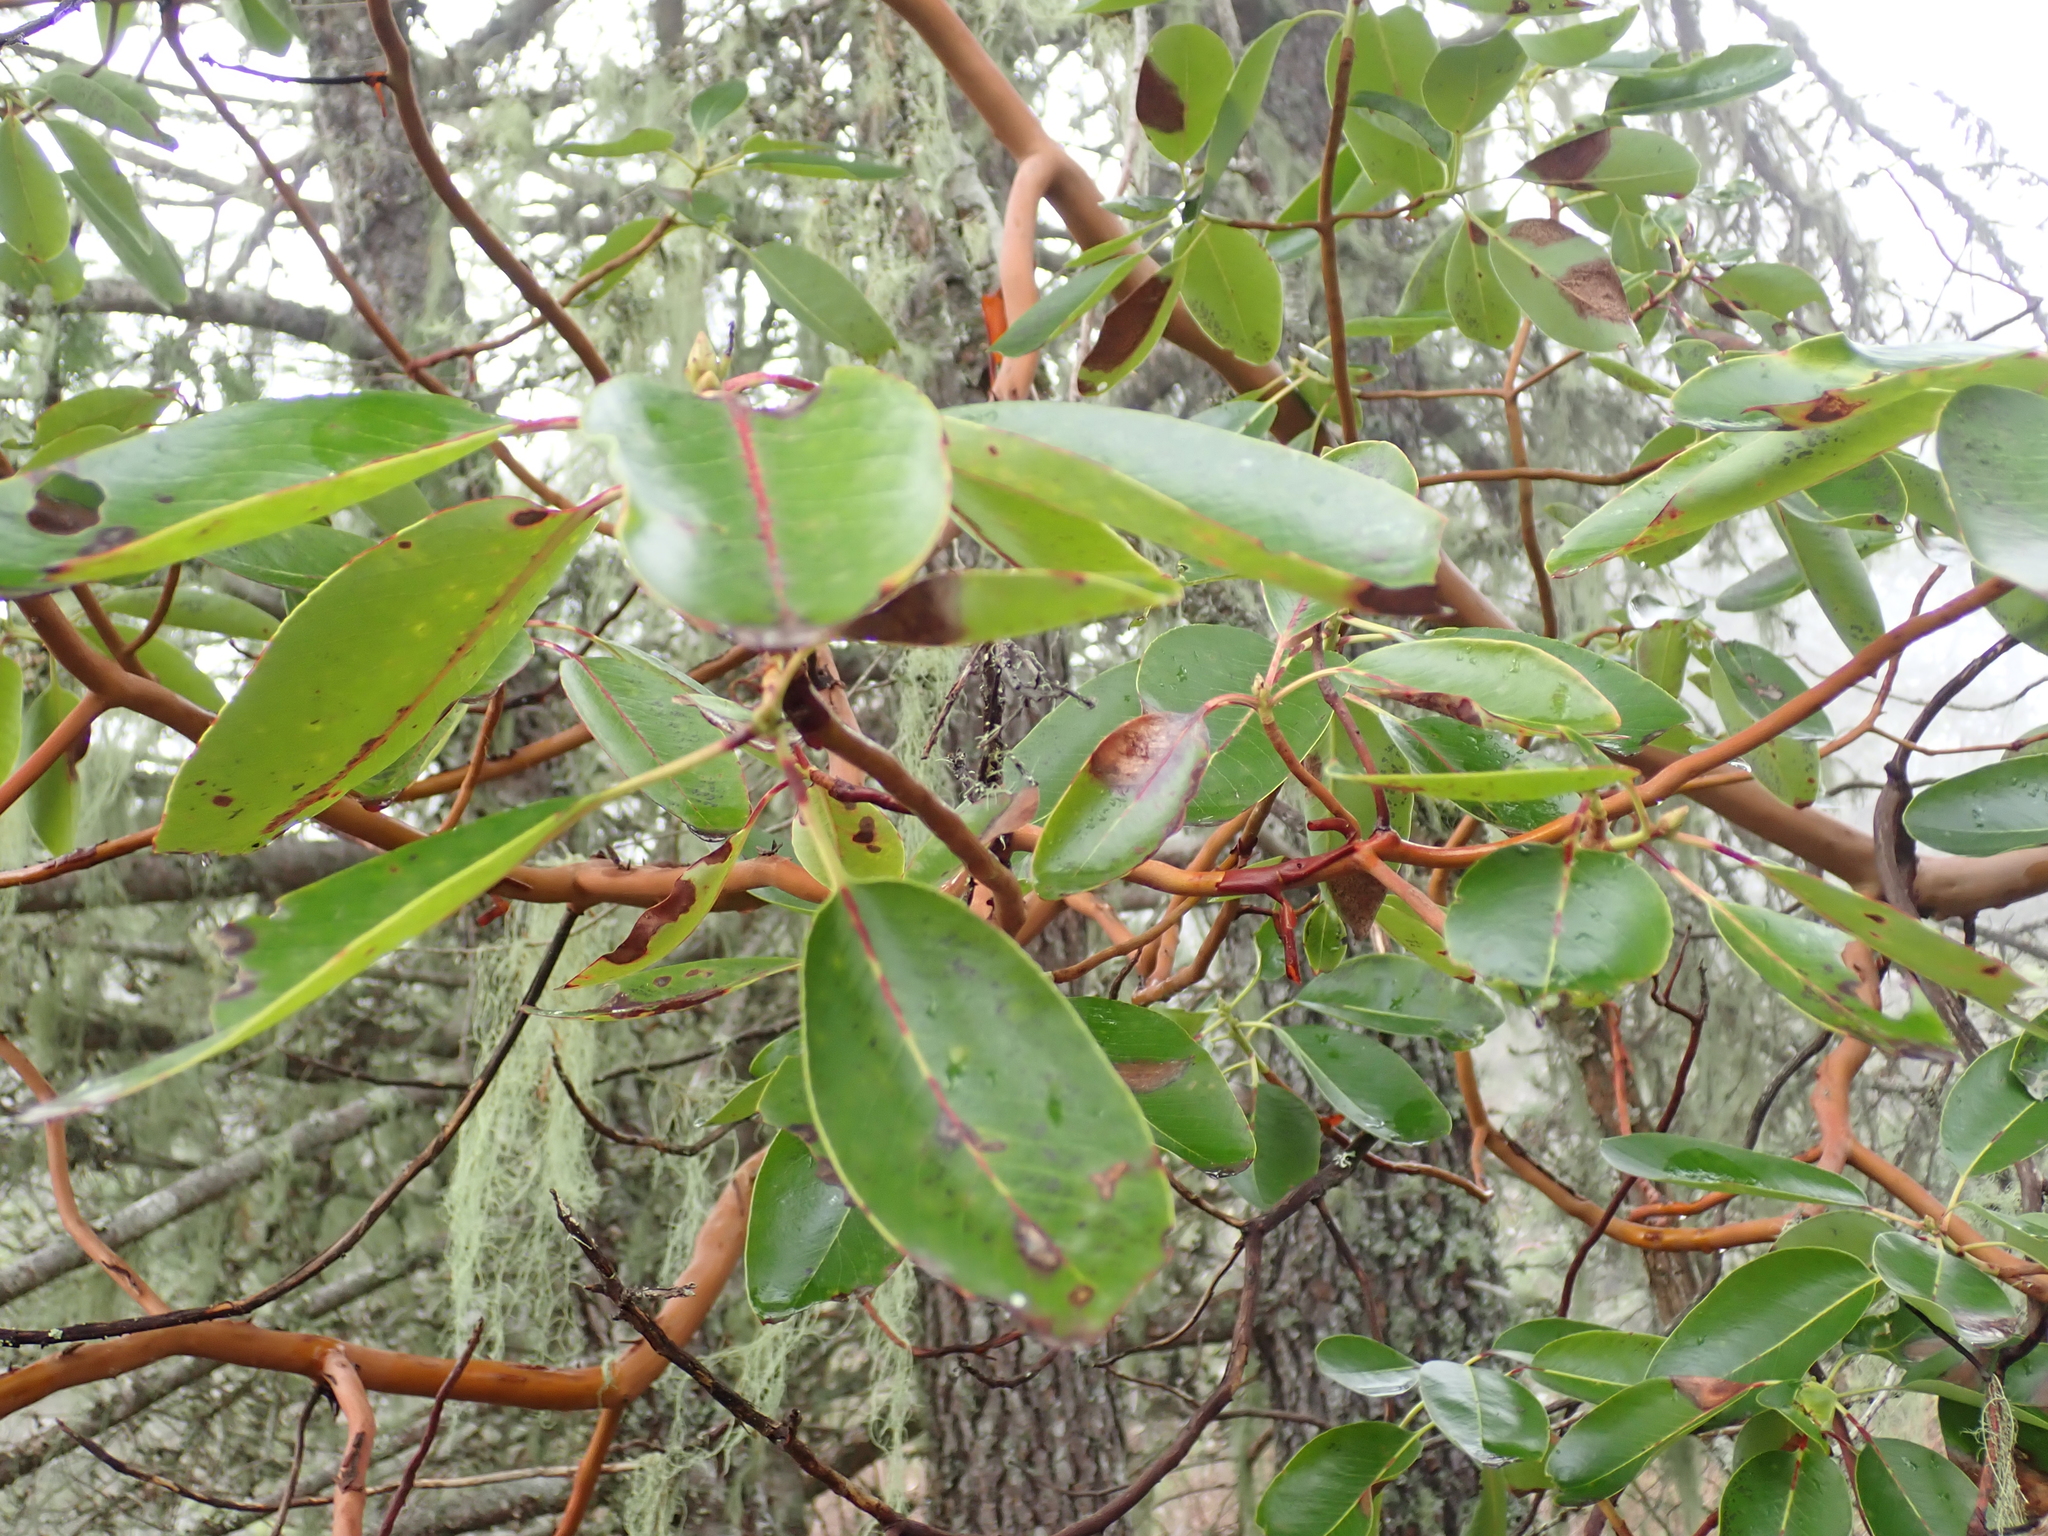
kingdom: Plantae
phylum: Tracheophyta
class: Magnoliopsida
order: Ericales
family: Ericaceae
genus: Arbutus
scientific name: Arbutus menziesii
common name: Pacific madrone
